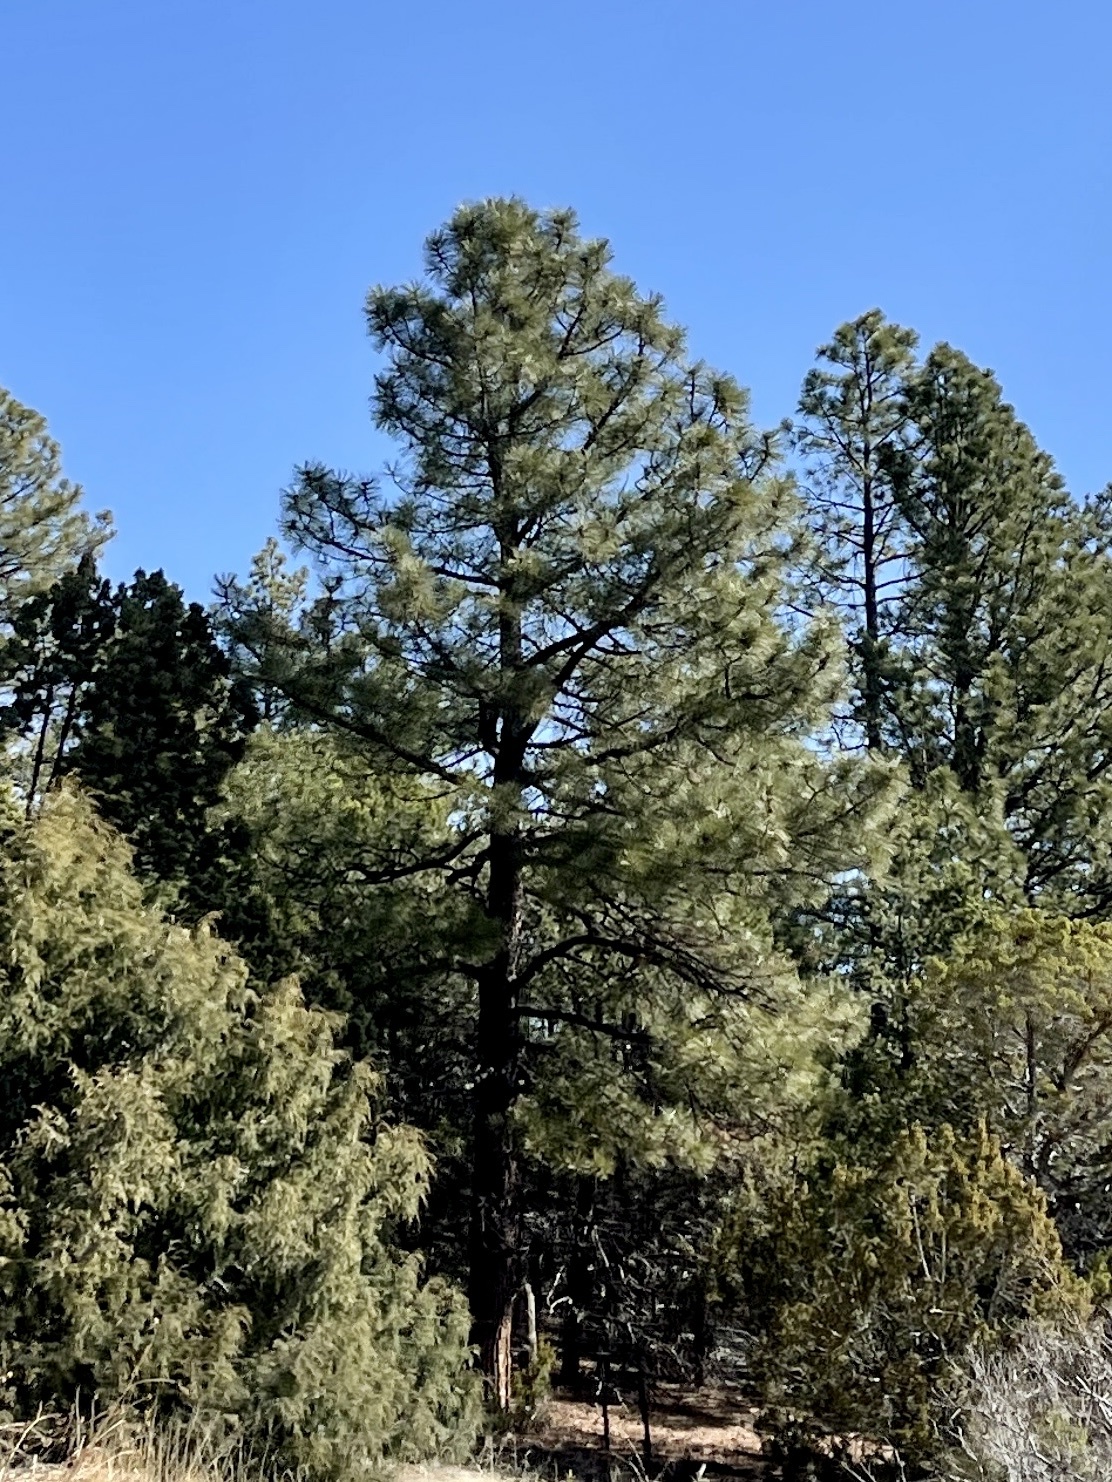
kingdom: Plantae
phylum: Tracheophyta
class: Pinopsida
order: Pinales
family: Pinaceae
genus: Pinus
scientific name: Pinus ponderosa
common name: Western yellow-pine
